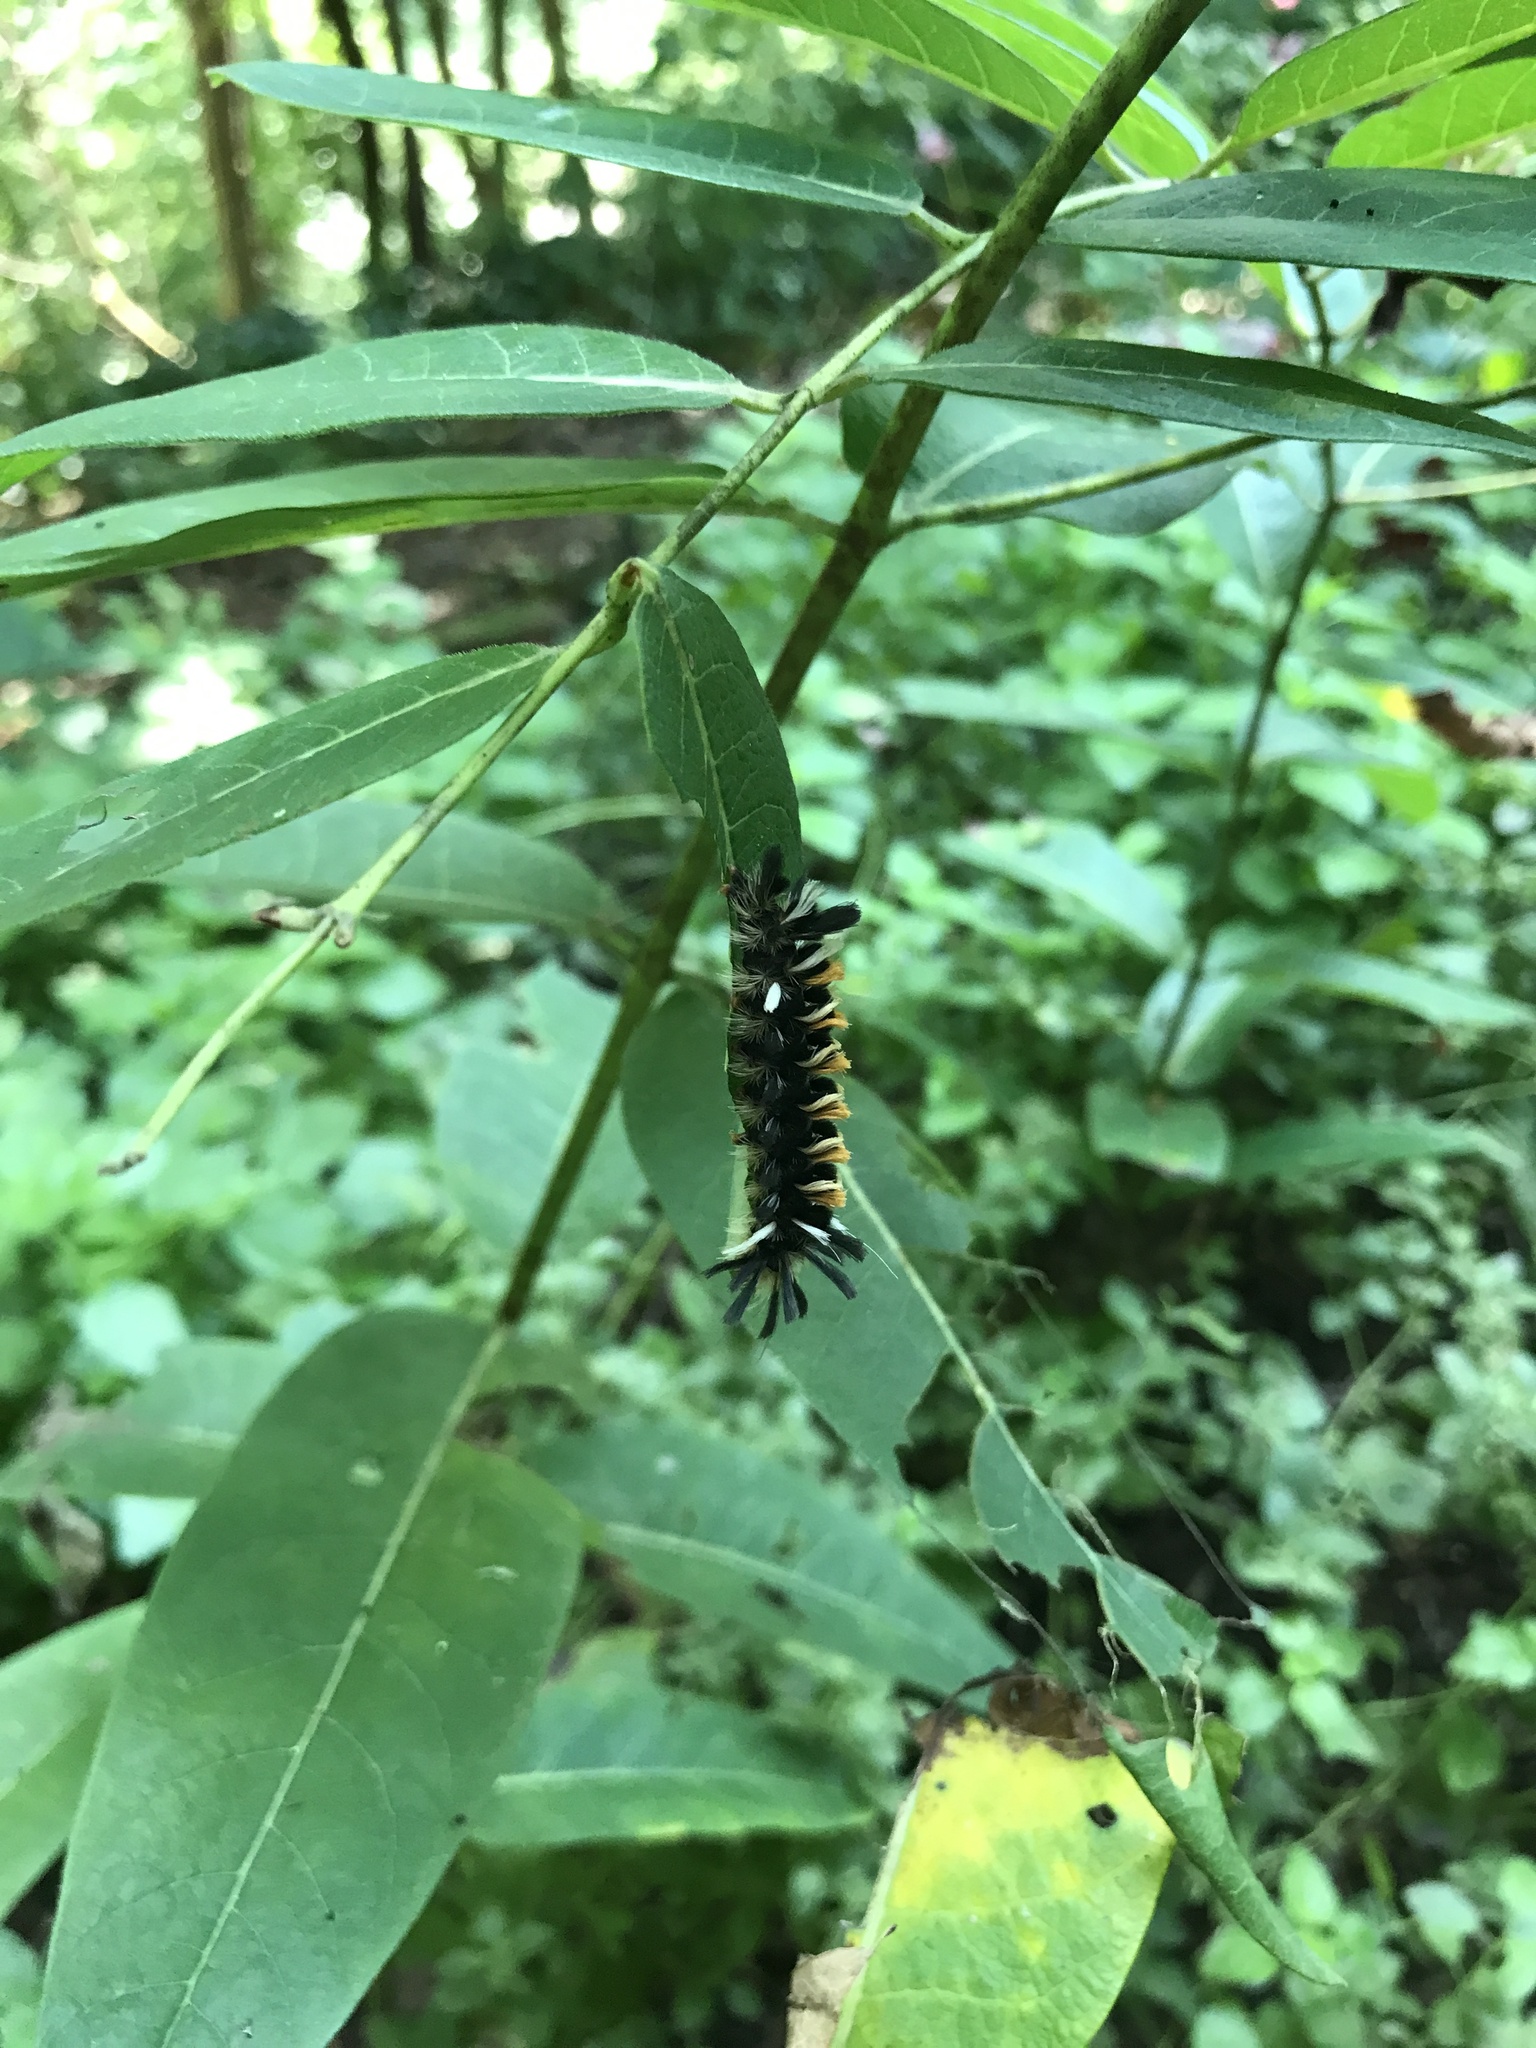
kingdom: Animalia
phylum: Arthropoda
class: Insecta
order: Lepidoptera
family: Erebidae
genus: Euchaetes
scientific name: Euchaetes egle
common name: Milkweed tussock moth
